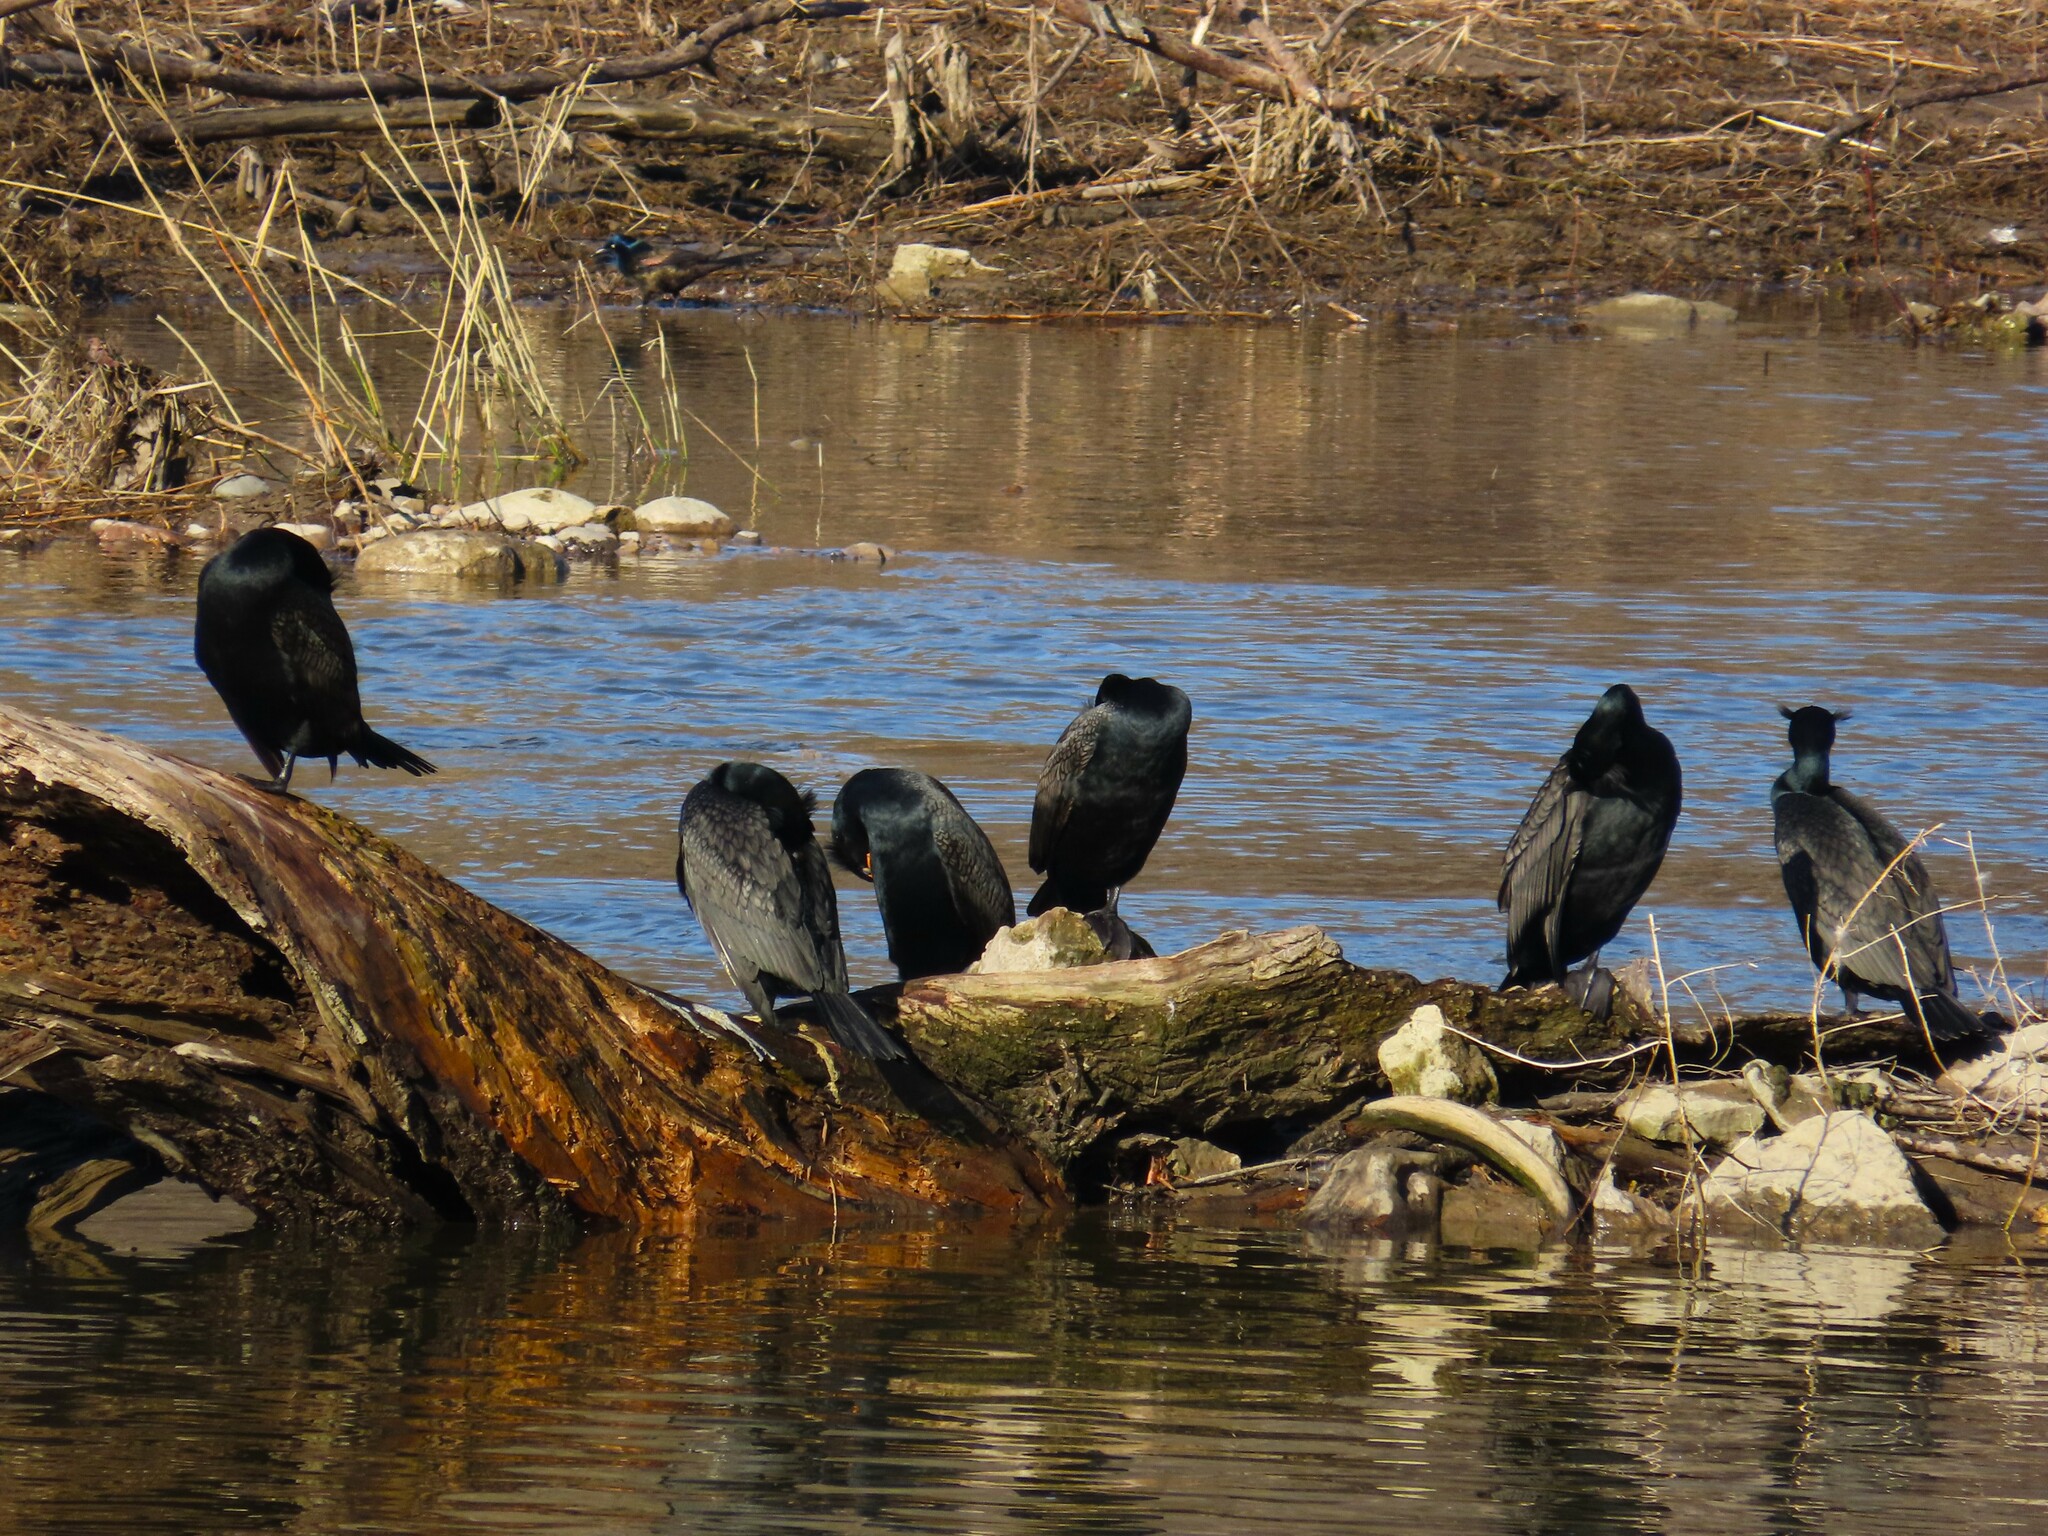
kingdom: Animalia
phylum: Chordata
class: Aves
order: Suliformes
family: Phalacrocoracidae
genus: Phalacrocorax
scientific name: Phalacrocorax auritus
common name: Double-crested cormorant
